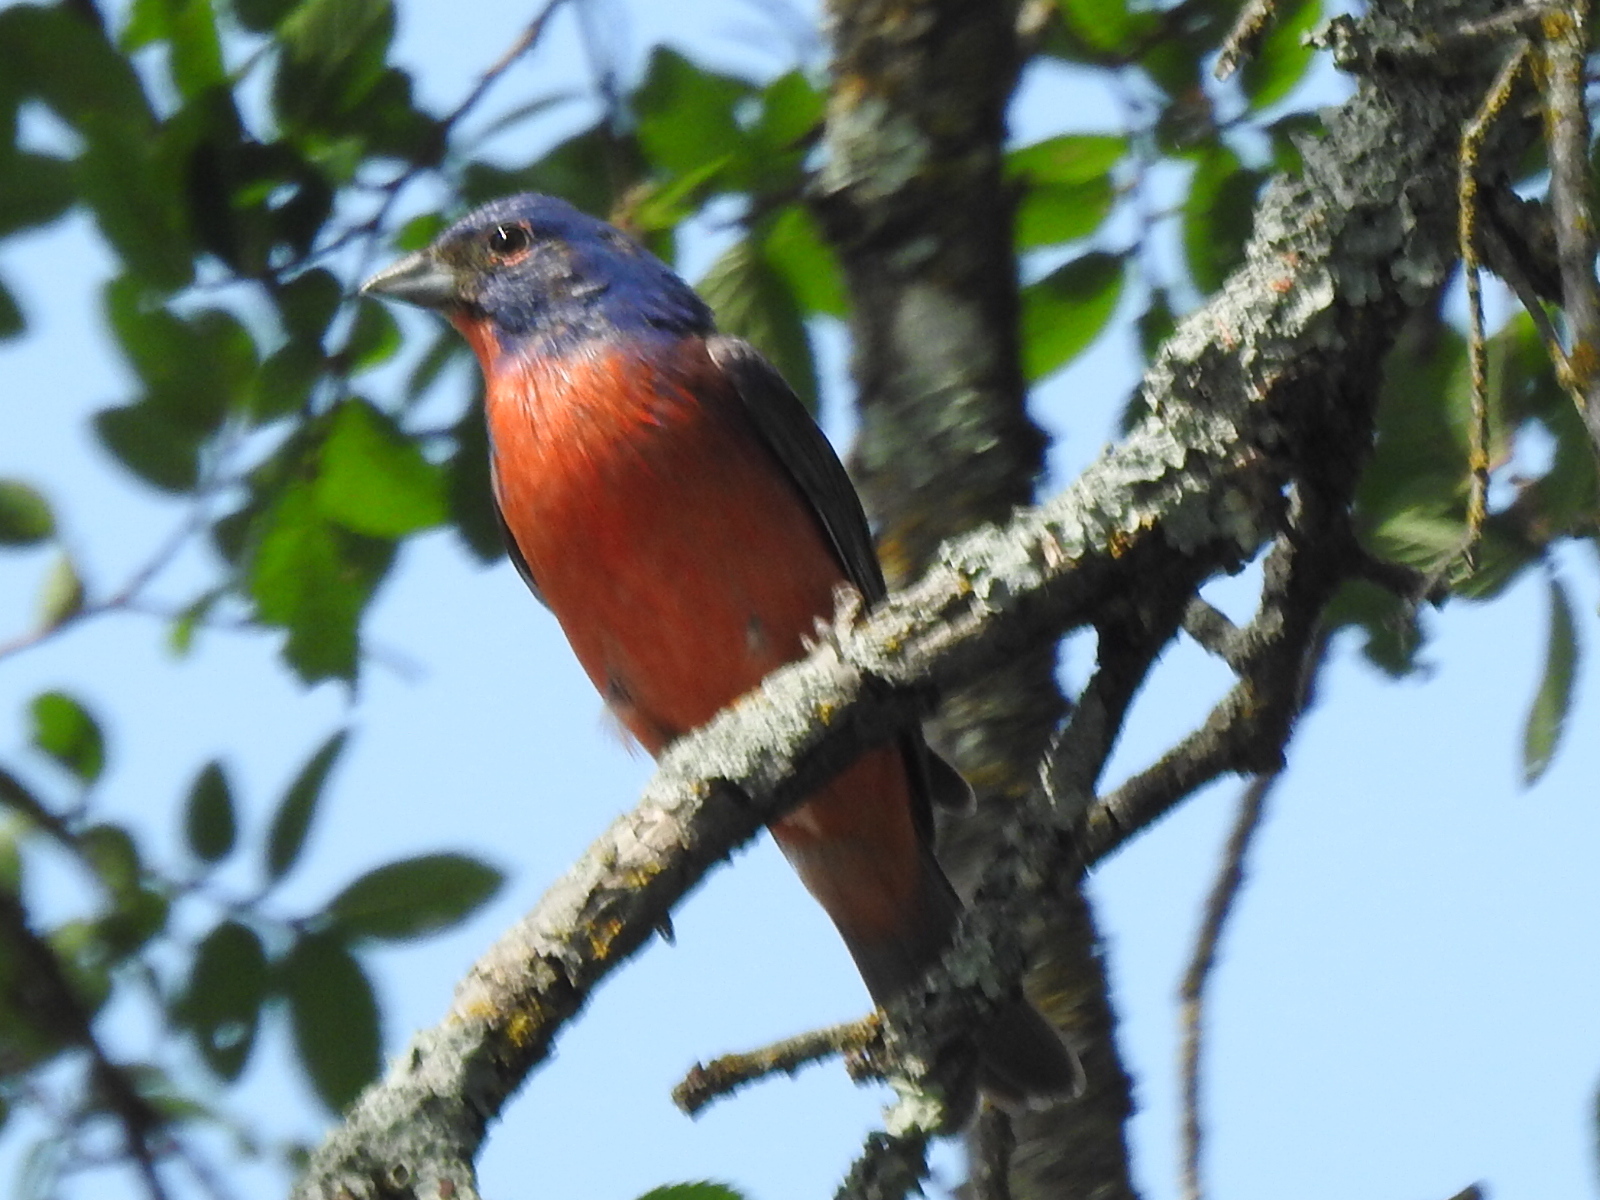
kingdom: Animalia
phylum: Chordata
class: Aves
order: Passeriformes
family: Cardinalidae
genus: Passerina
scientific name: Passerina ciris
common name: Painted bunting
